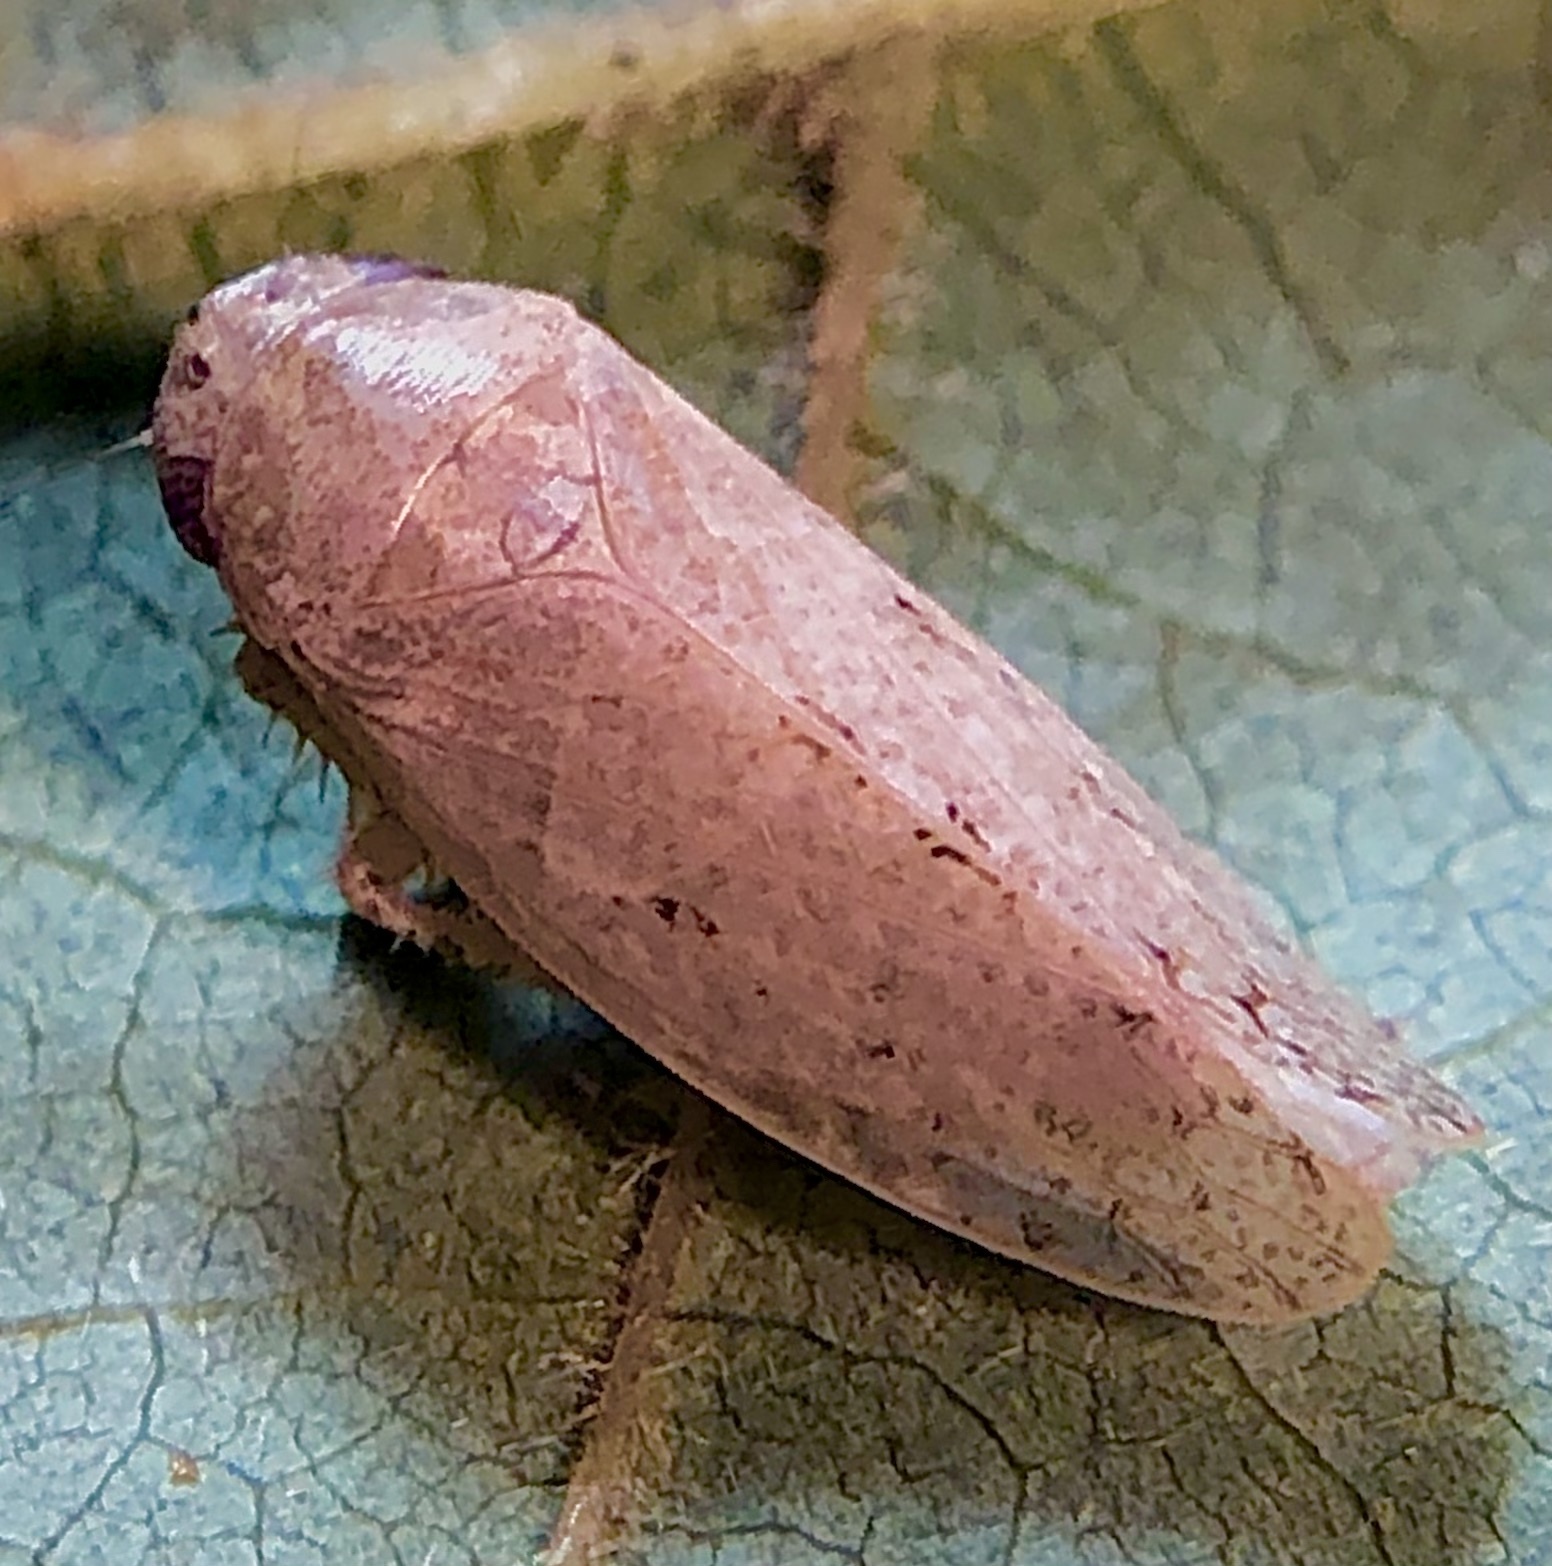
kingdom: Animalia
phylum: Arthropoda
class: Insecta
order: Hemiptera
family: Cicadellidae
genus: Curtara
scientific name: Curtara insularis
